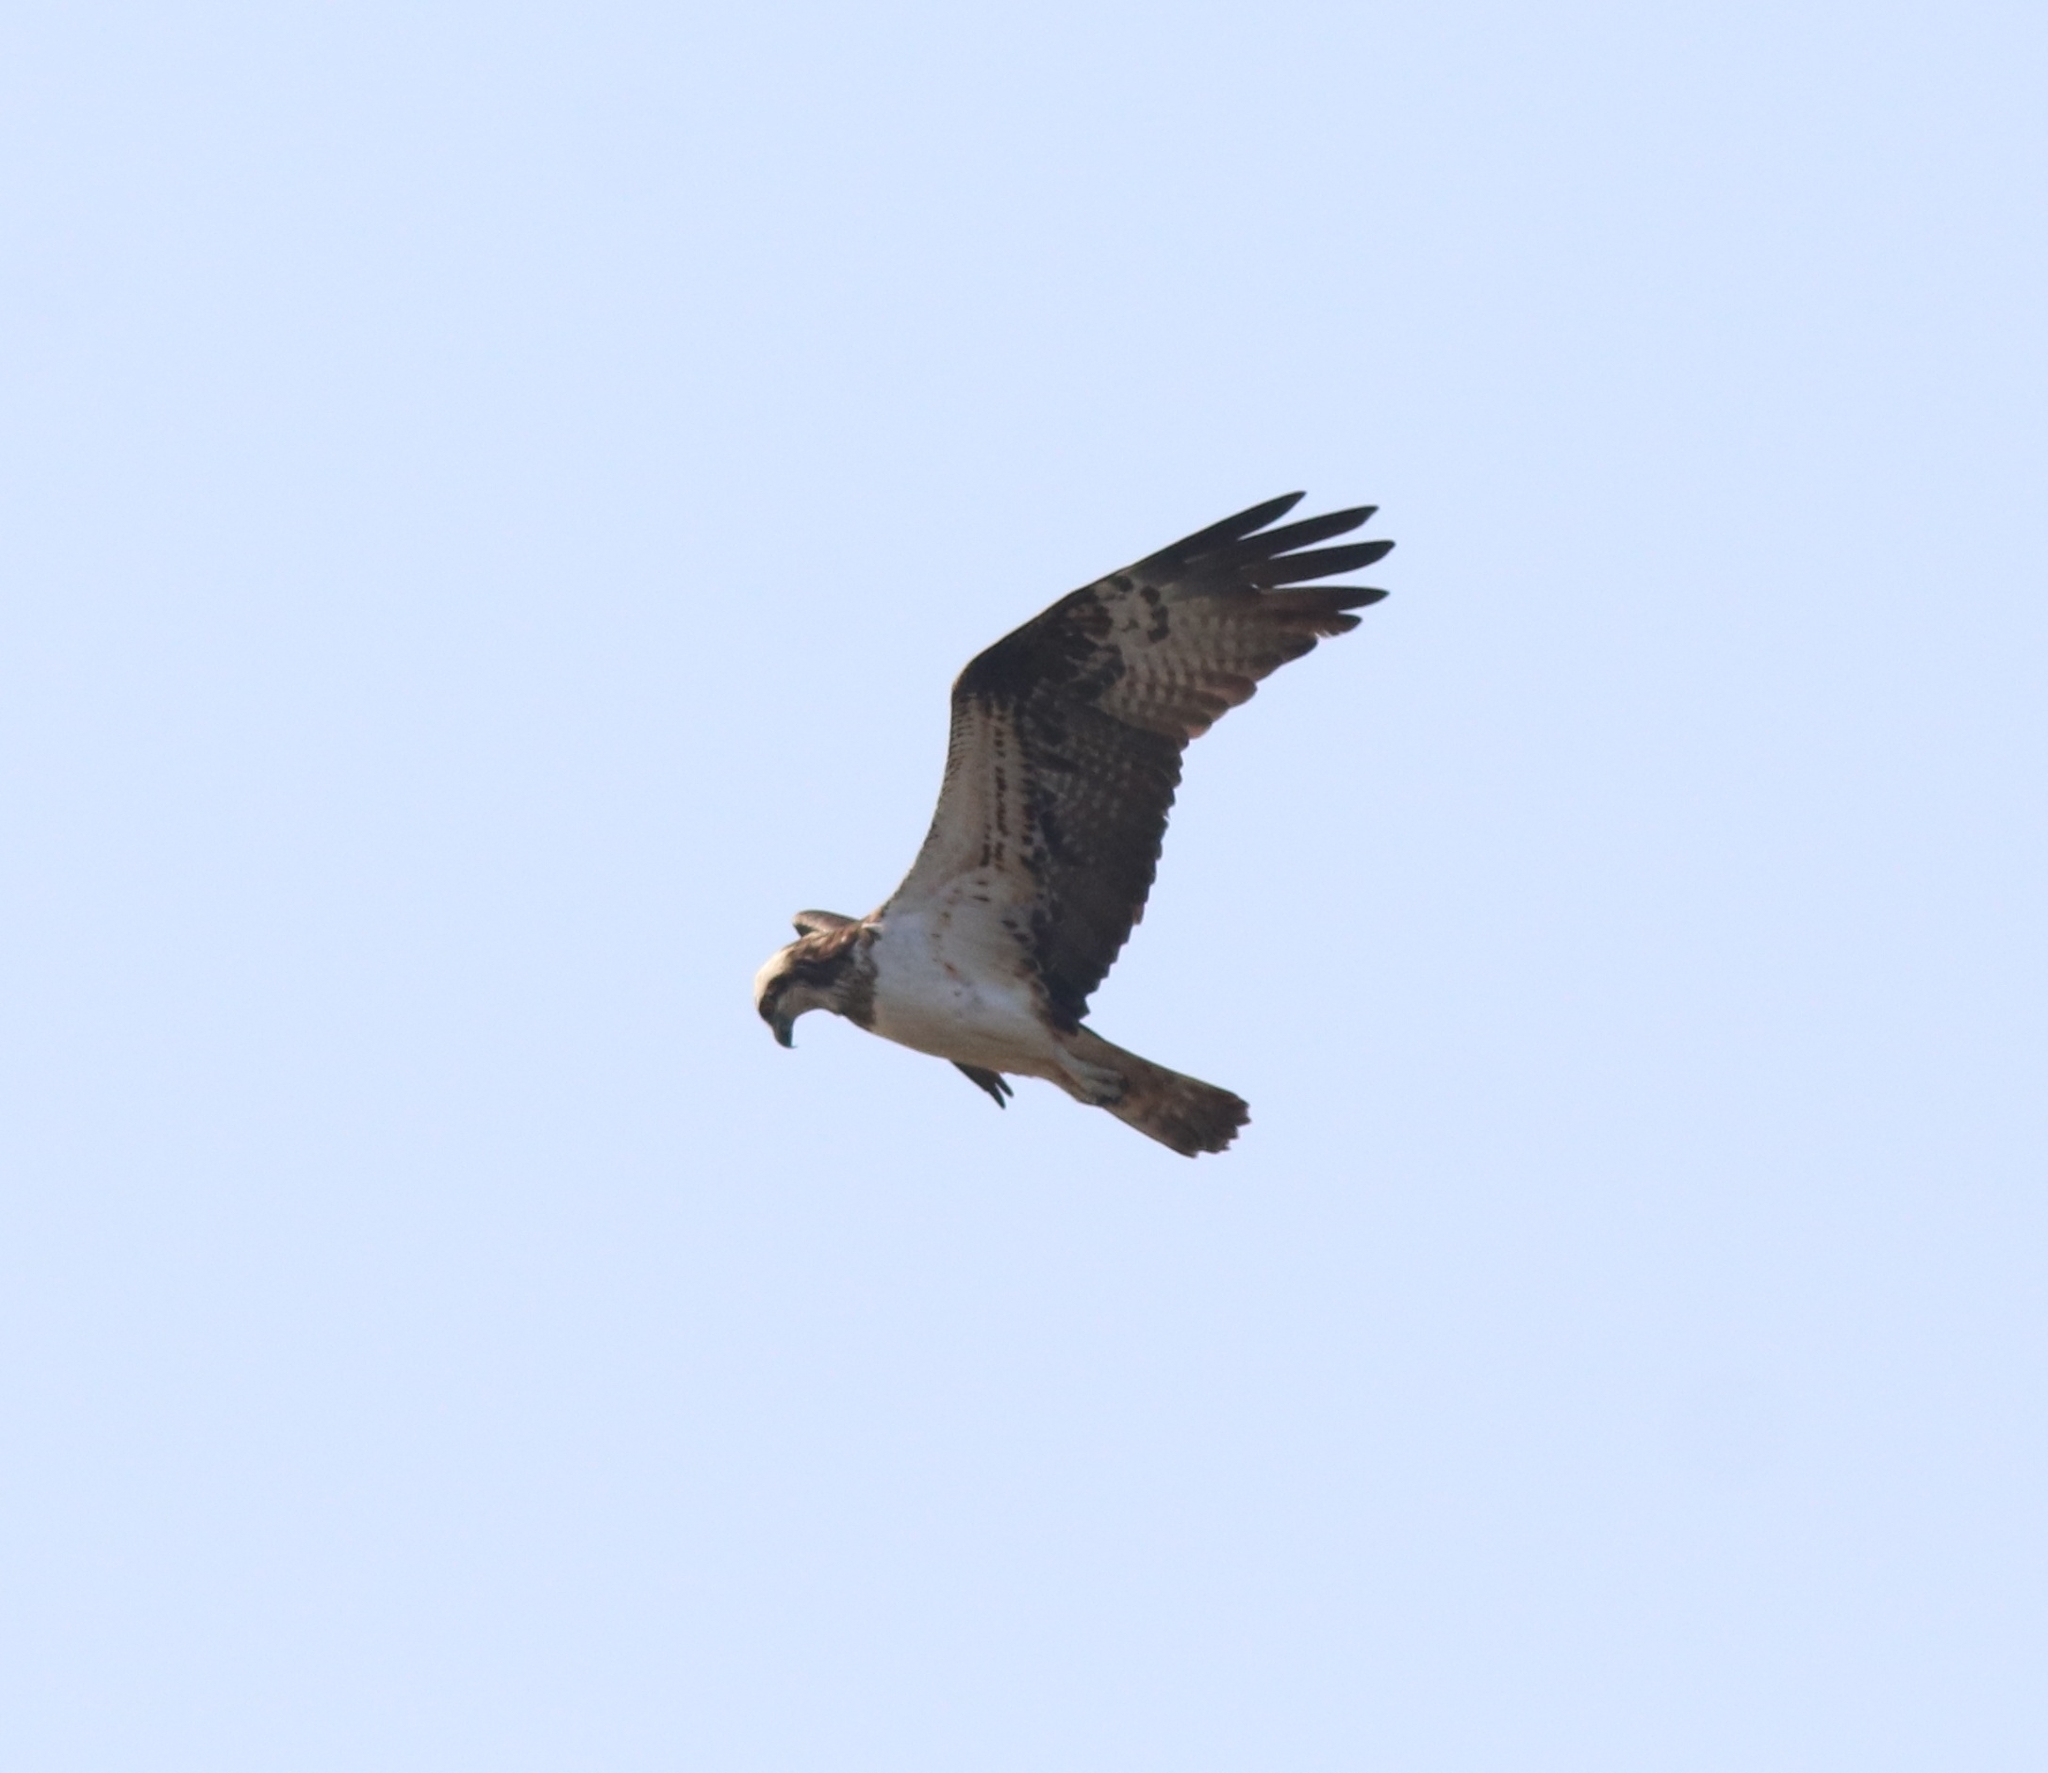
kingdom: Animalia
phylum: Chordata
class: Aves
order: Accipitriformes
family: Pandionidae
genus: Pandion
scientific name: Pandion haliaetus
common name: Osprey
